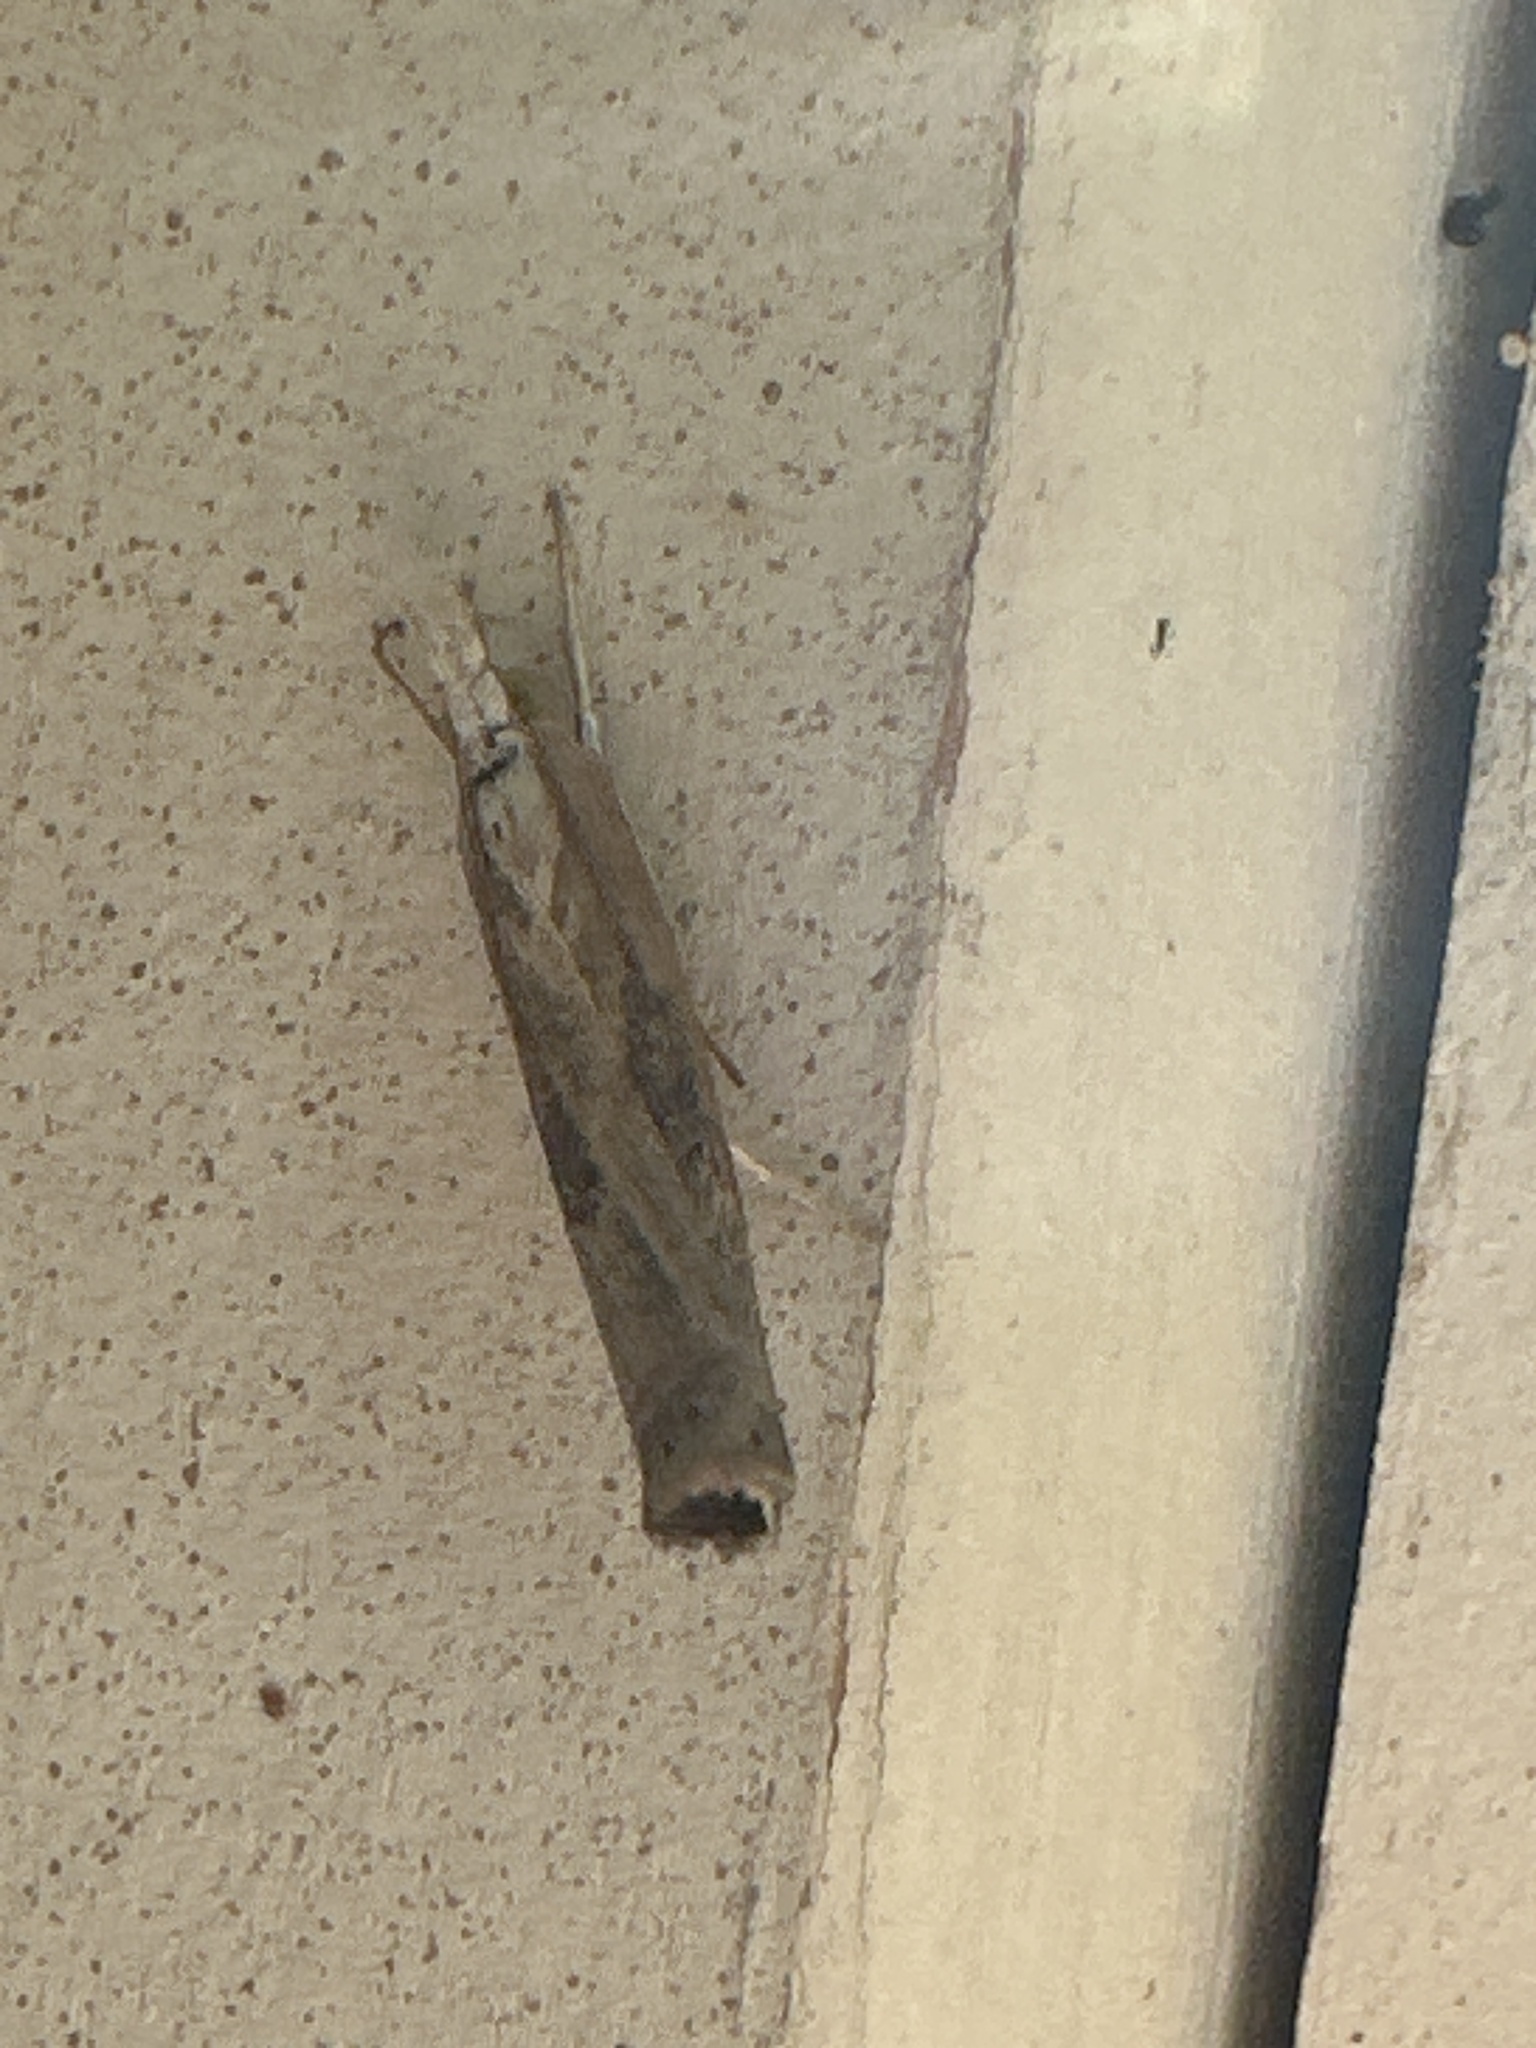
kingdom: Animalia
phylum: Arthropoda
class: Insecta
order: Lepidoptera
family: Crambidae
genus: Parapediasia
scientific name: Parapediasia teterellus
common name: Bluegrass webworm moth
